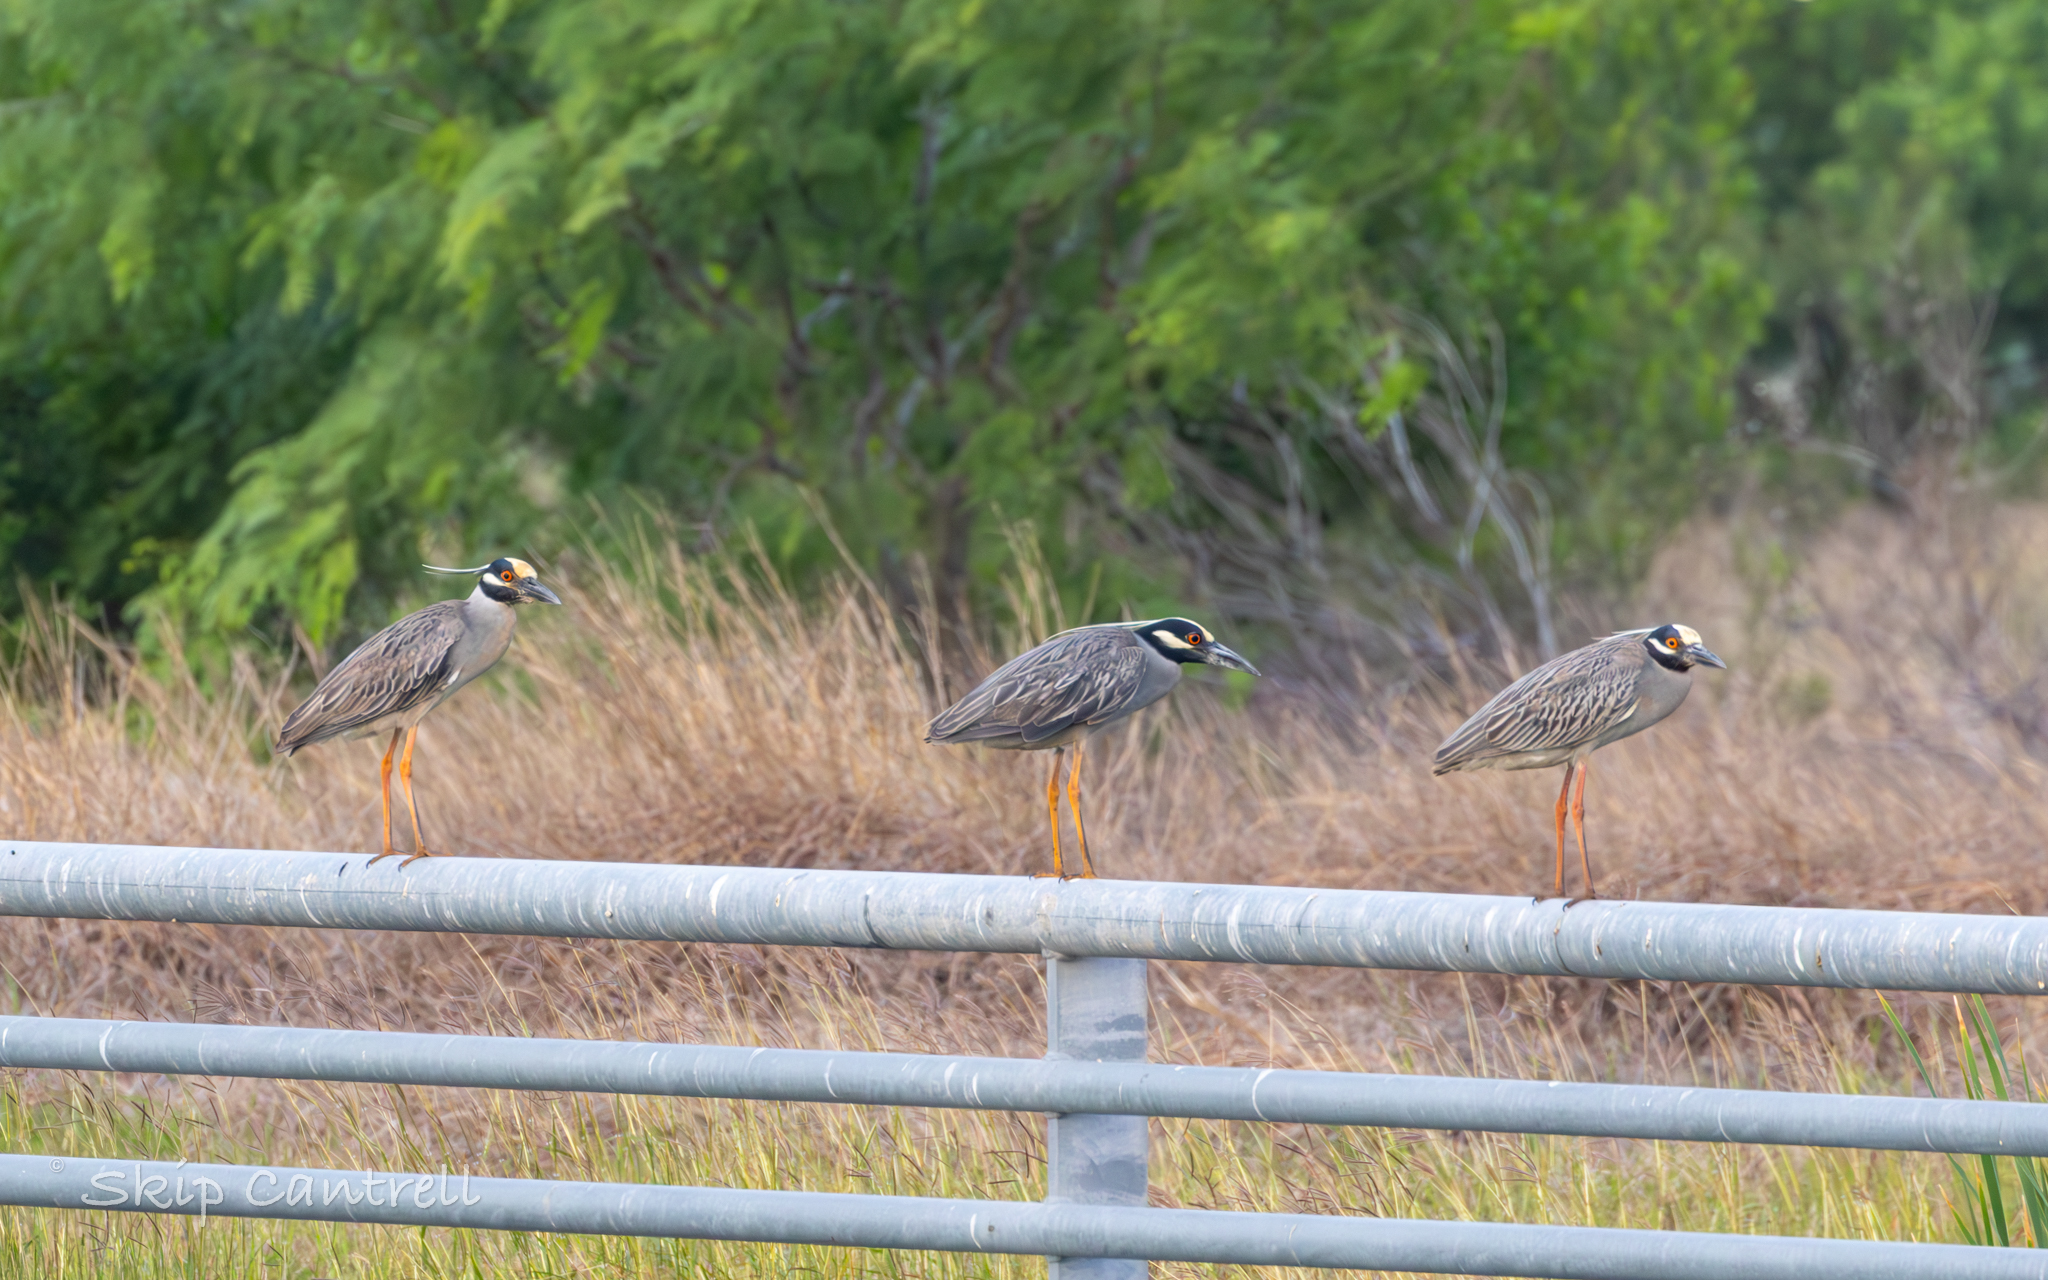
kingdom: Animalia
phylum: Chordata
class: Aves
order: Pelecaniformes
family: Ardeidae
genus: Nyctanassa
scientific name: Nyctanassa violacea
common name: Yellow-crowned night heron
